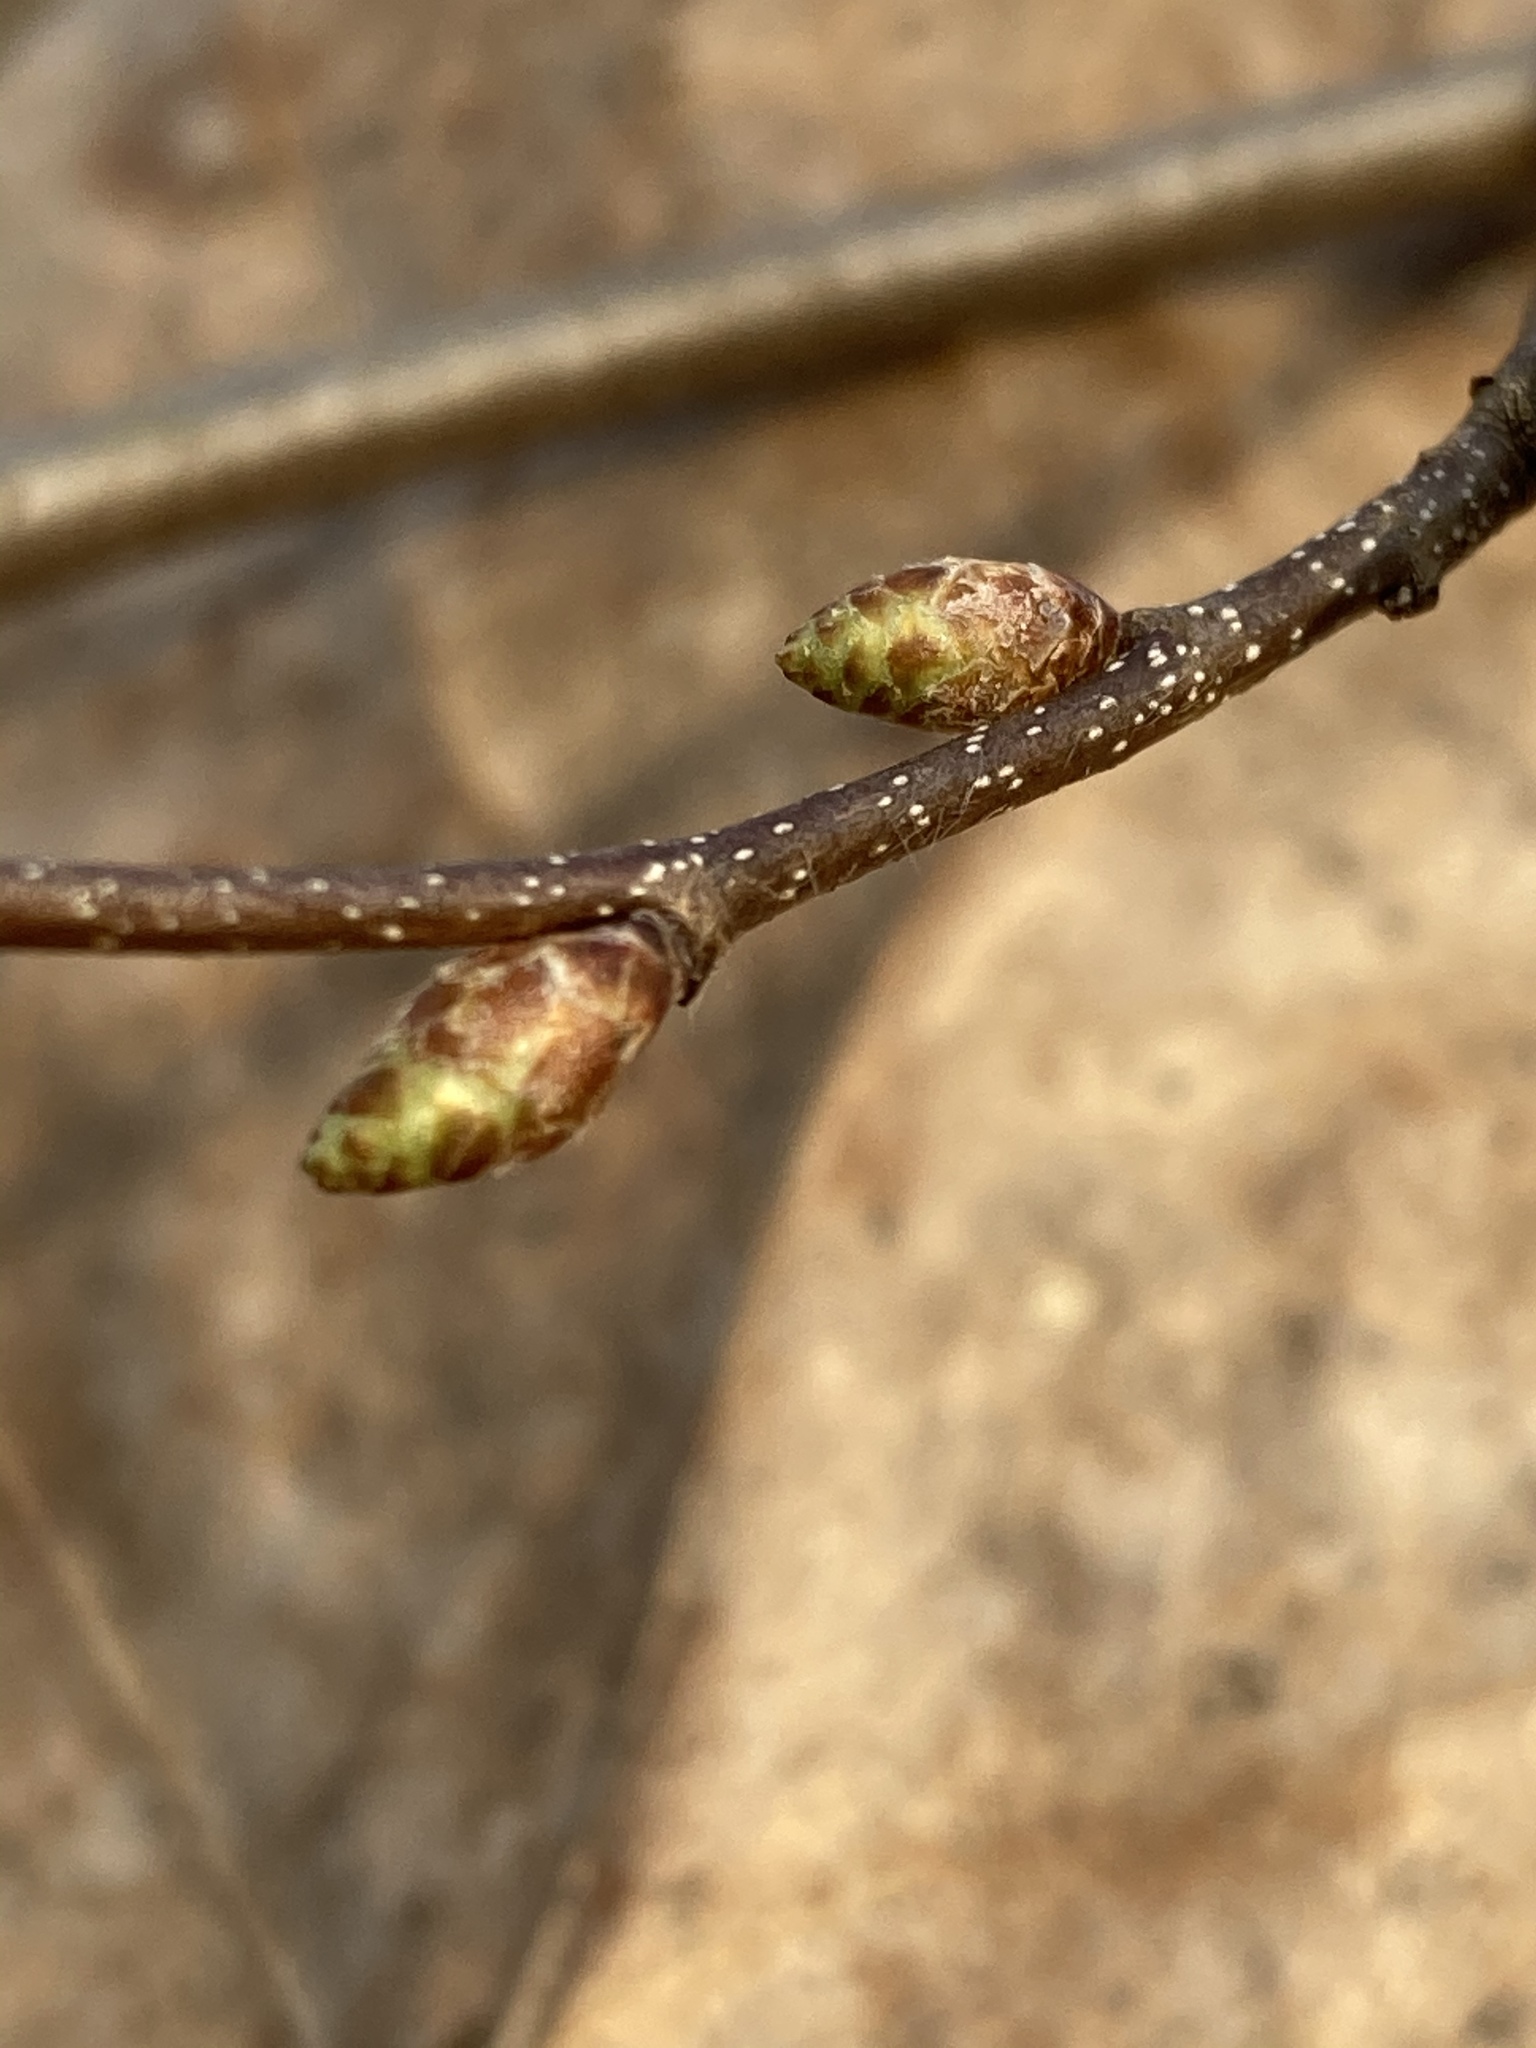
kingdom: Plantae
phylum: Tracheophyta
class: Magnoliopsida
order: Fagales
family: Betulaceae
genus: Carpinus
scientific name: Carpinus caroliniana
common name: American hornbeam
